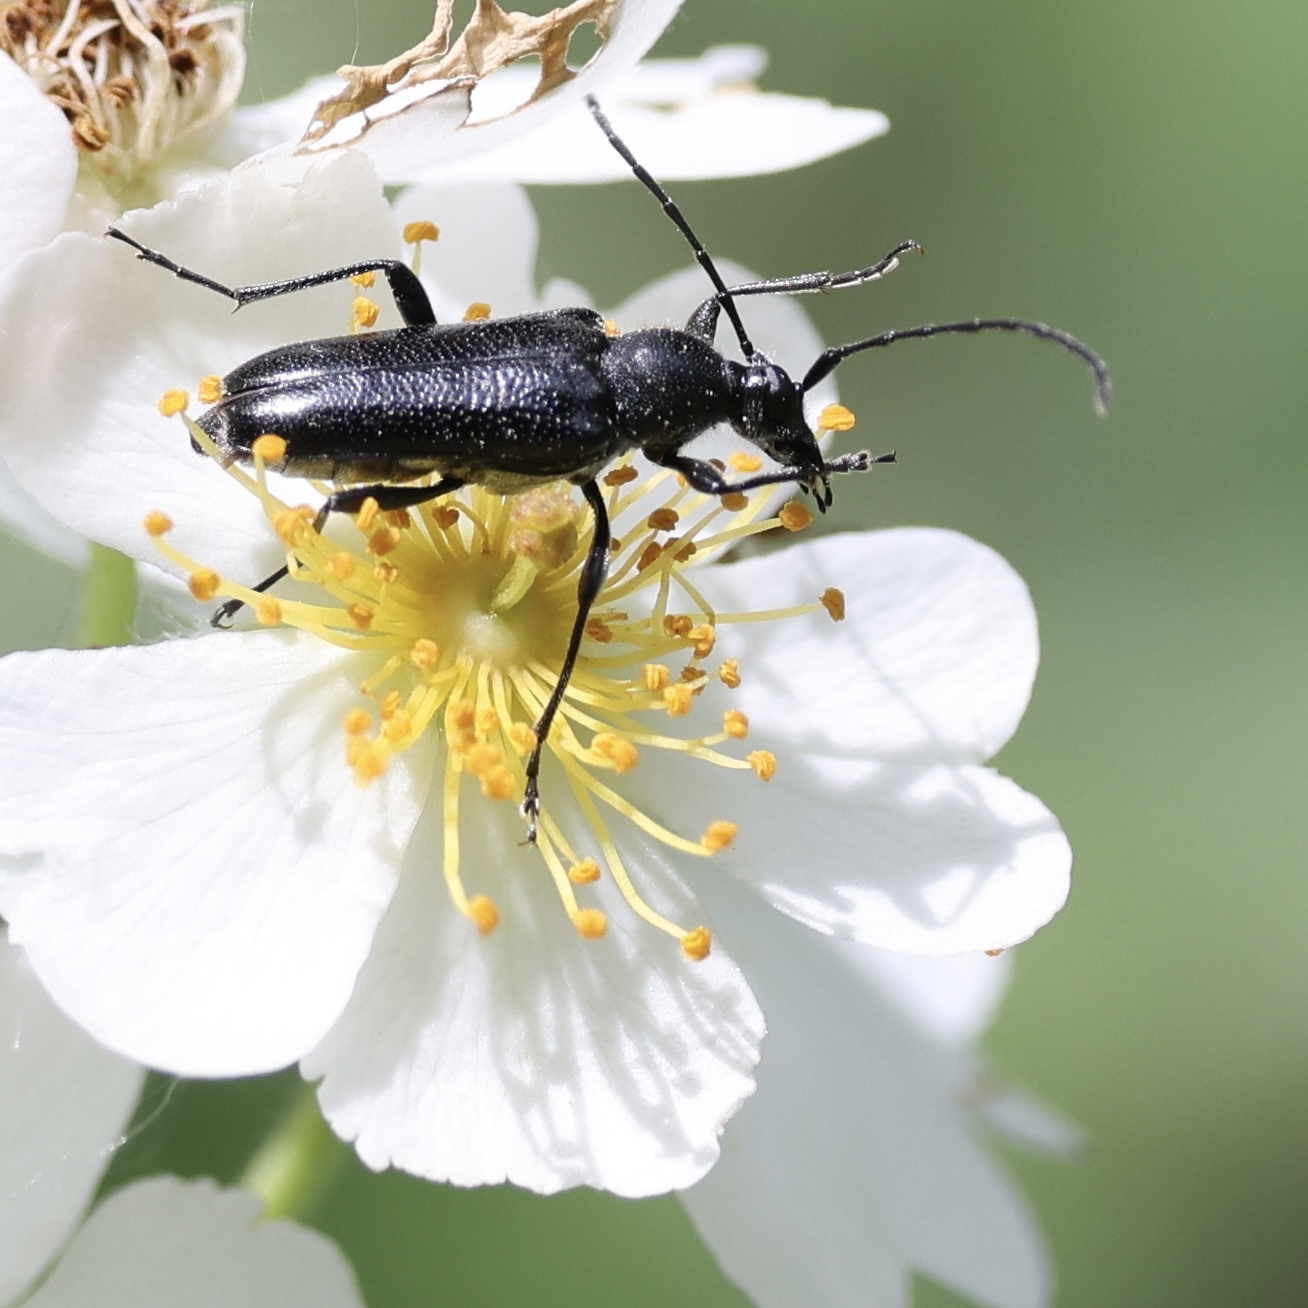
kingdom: Animalia
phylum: Arthropoda
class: Insecta
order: Coleoptera
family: Cerambycidae
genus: Strangalepta
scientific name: Strangalepta abbreviata
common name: Strangalepta flower longhorn beetle
